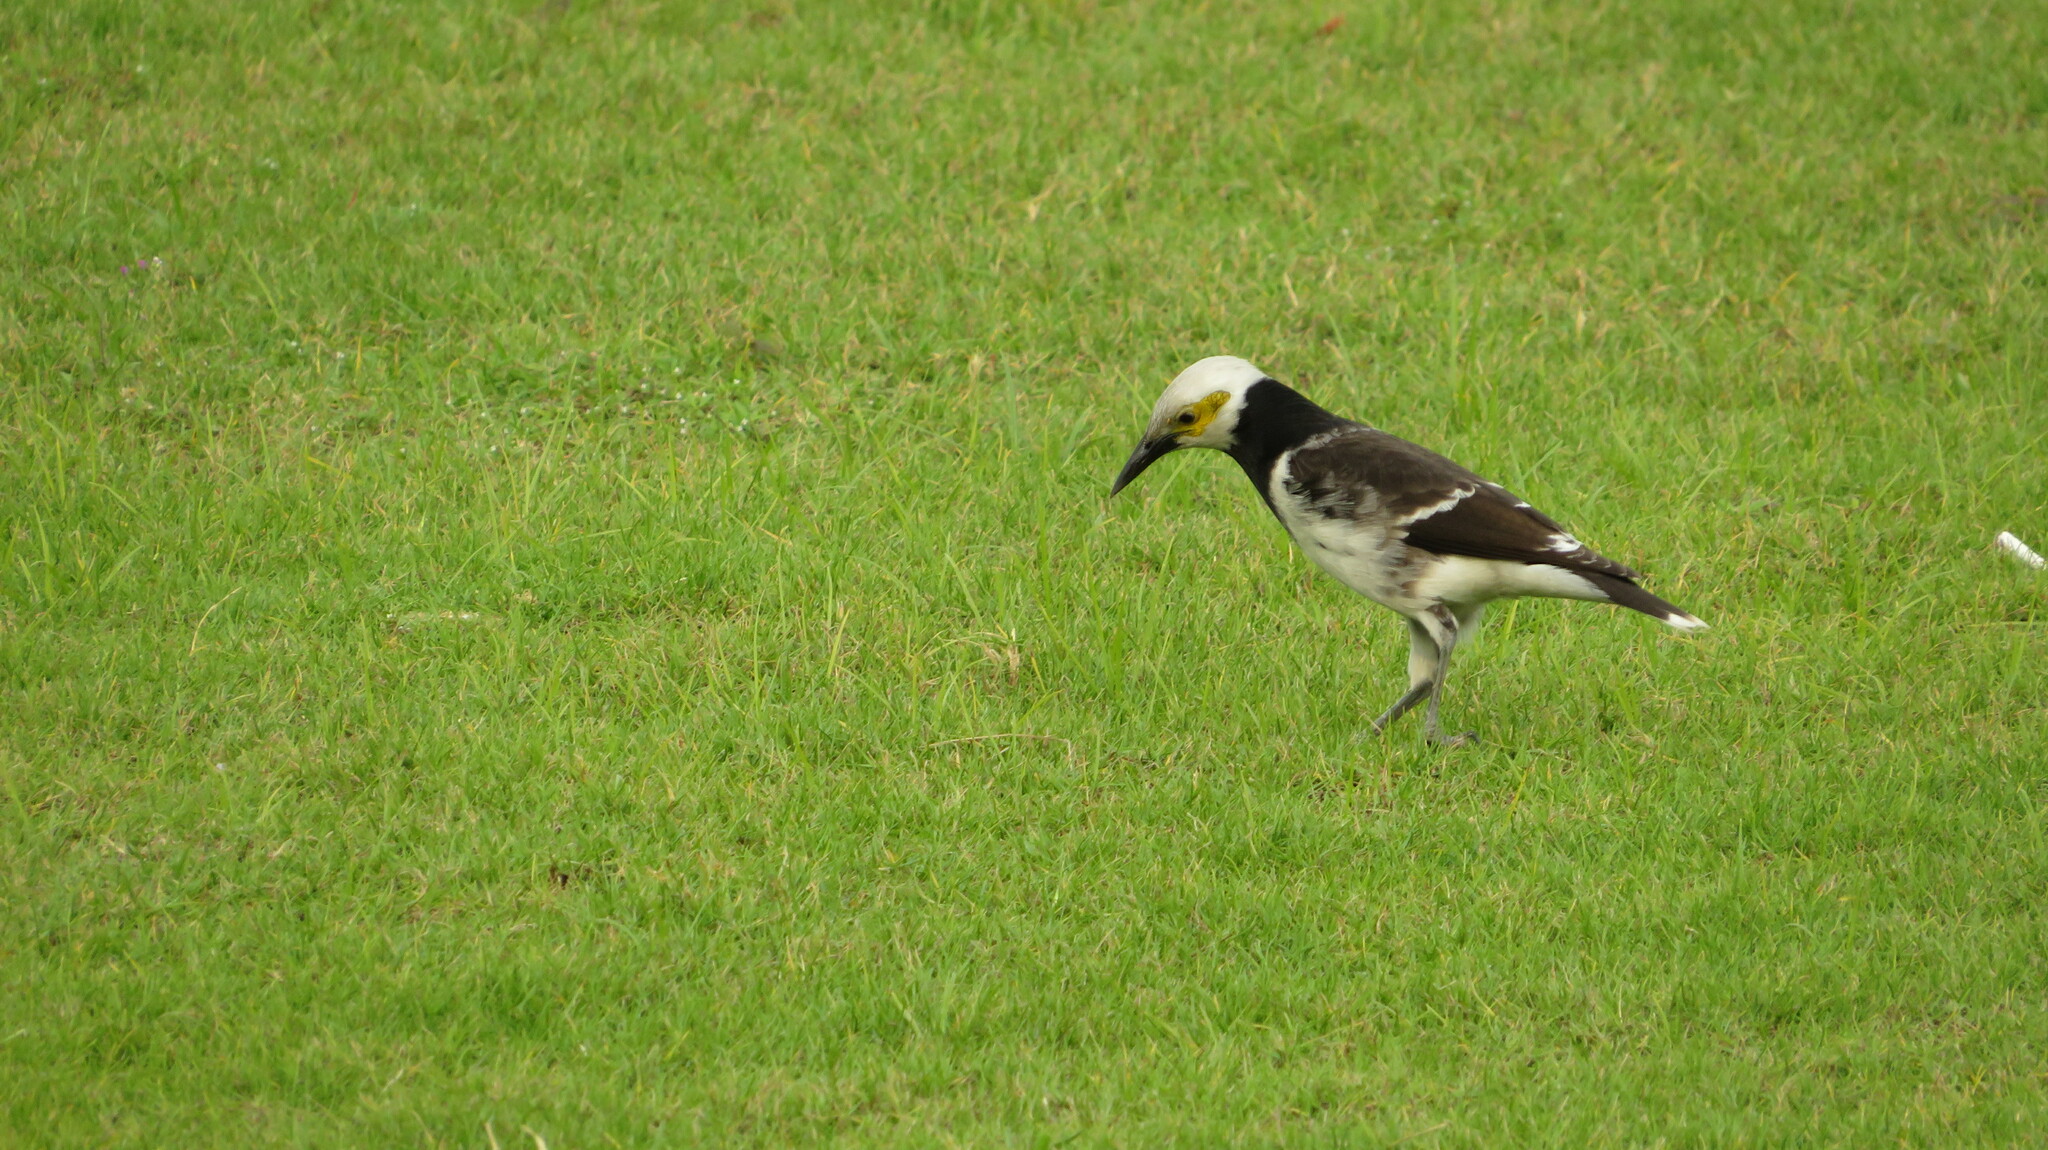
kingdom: Animalia
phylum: Chordata
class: Aves
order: Passeriformes
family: Sturnidae
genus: Gracupica
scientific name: Gracupica nigricollis
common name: Black-collared starling
